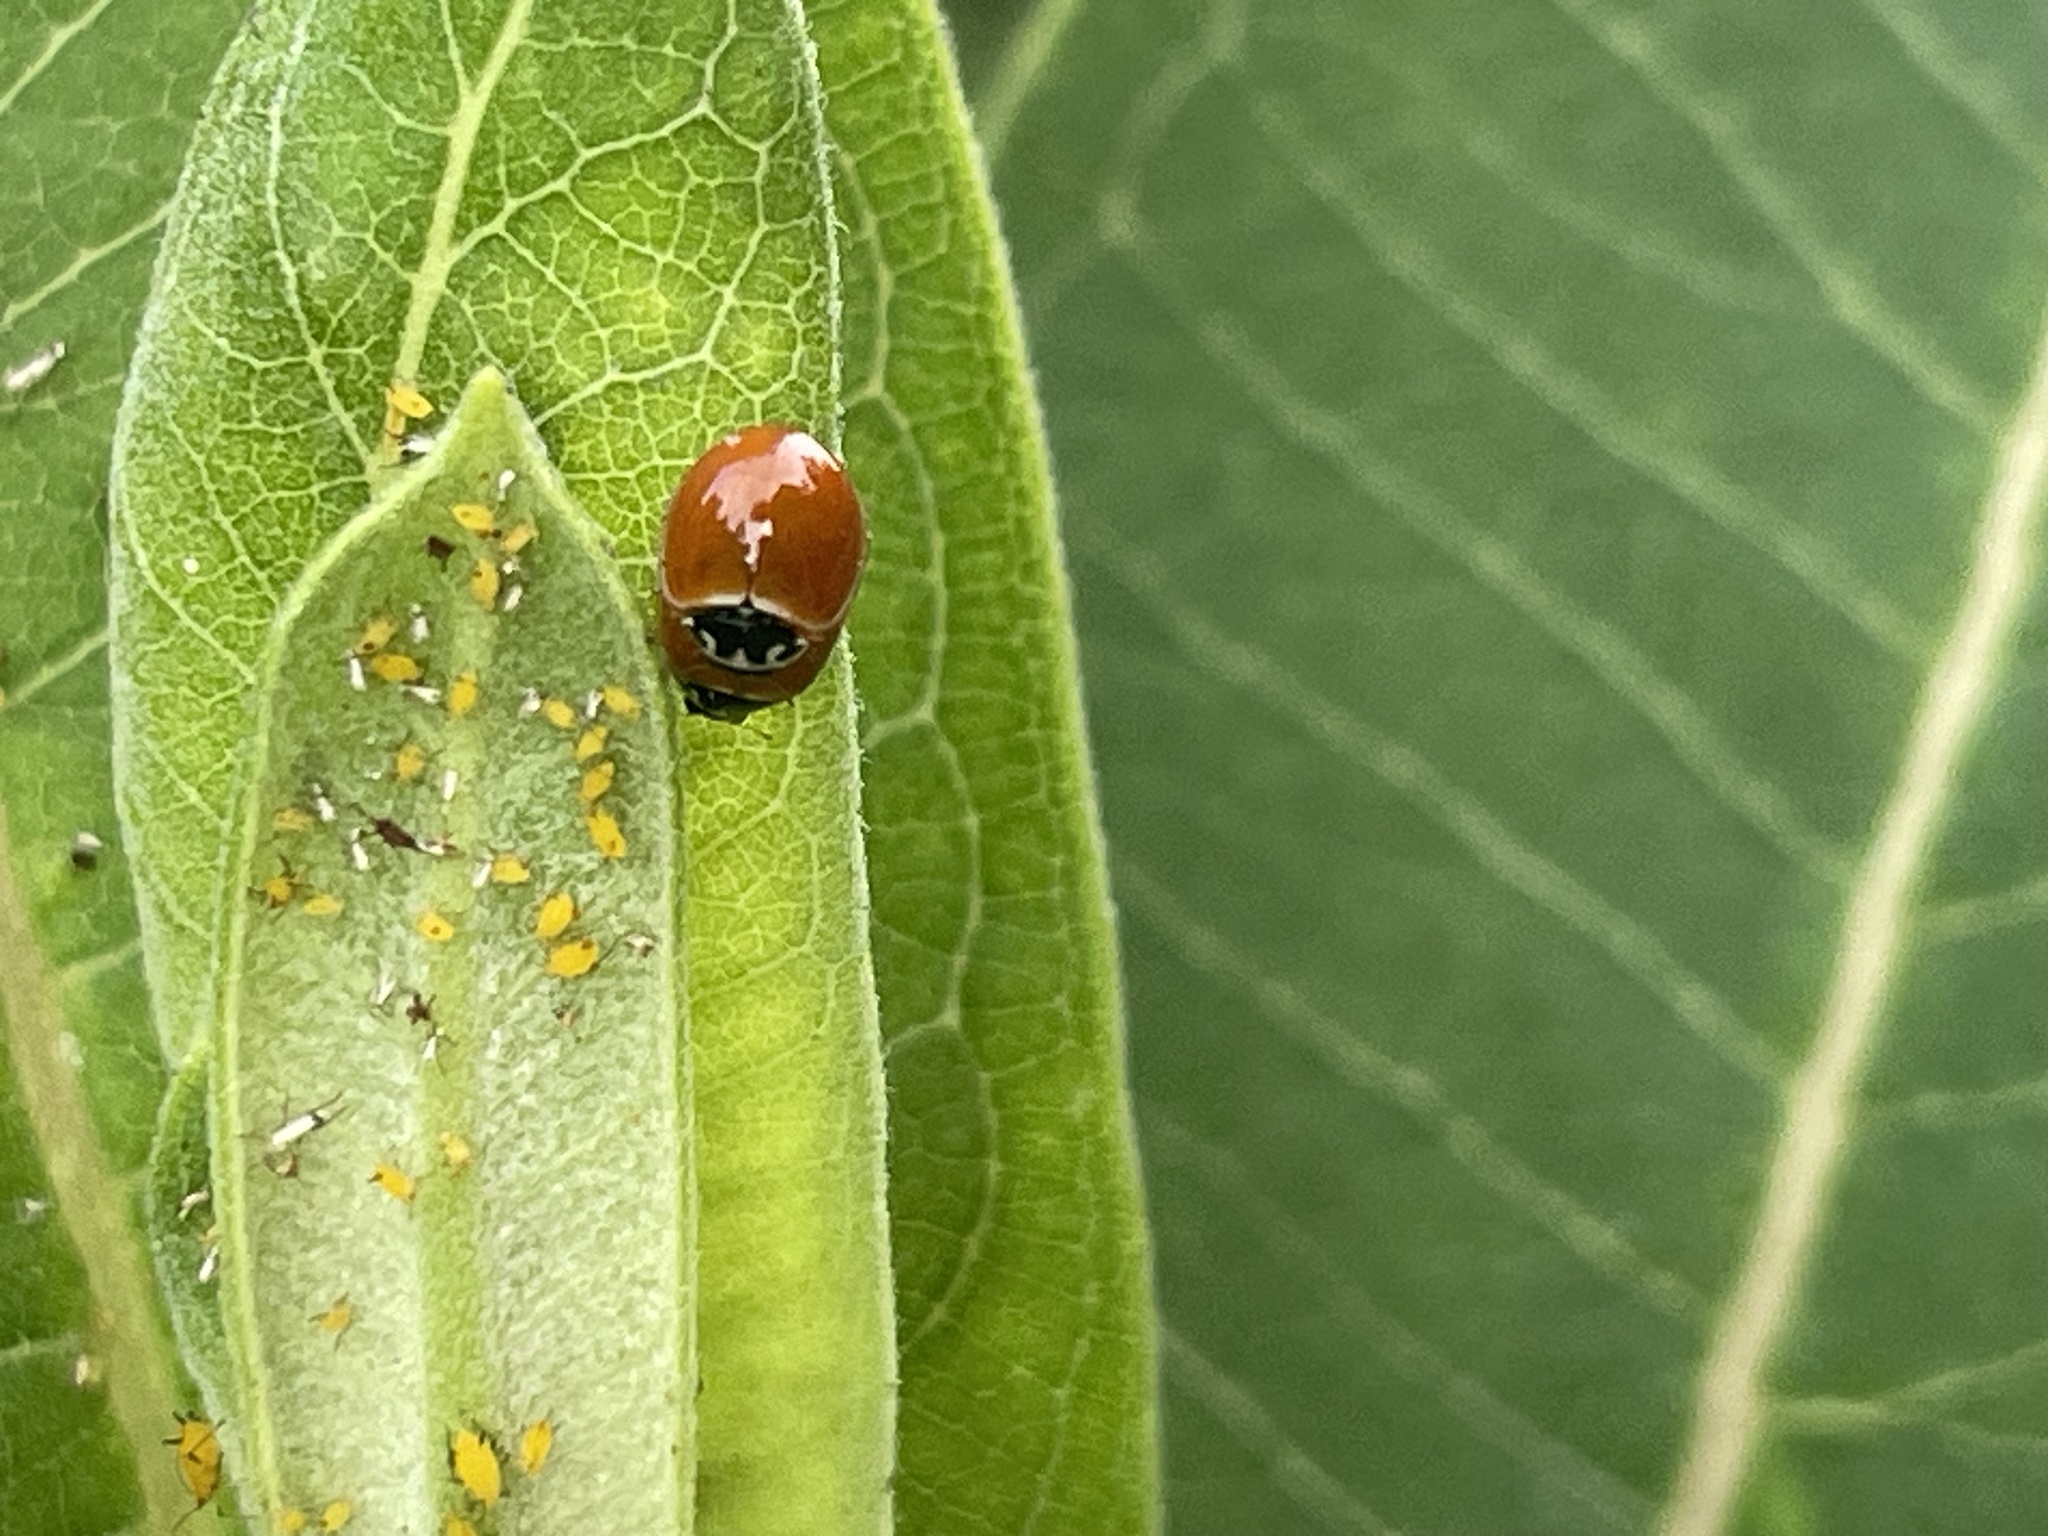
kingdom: Animalia
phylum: Arthropoda
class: Insecta
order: Coleoptera
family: Coccinellidae
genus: Cycloneda
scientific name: Cycloneda munda
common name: Polished lady beetle
